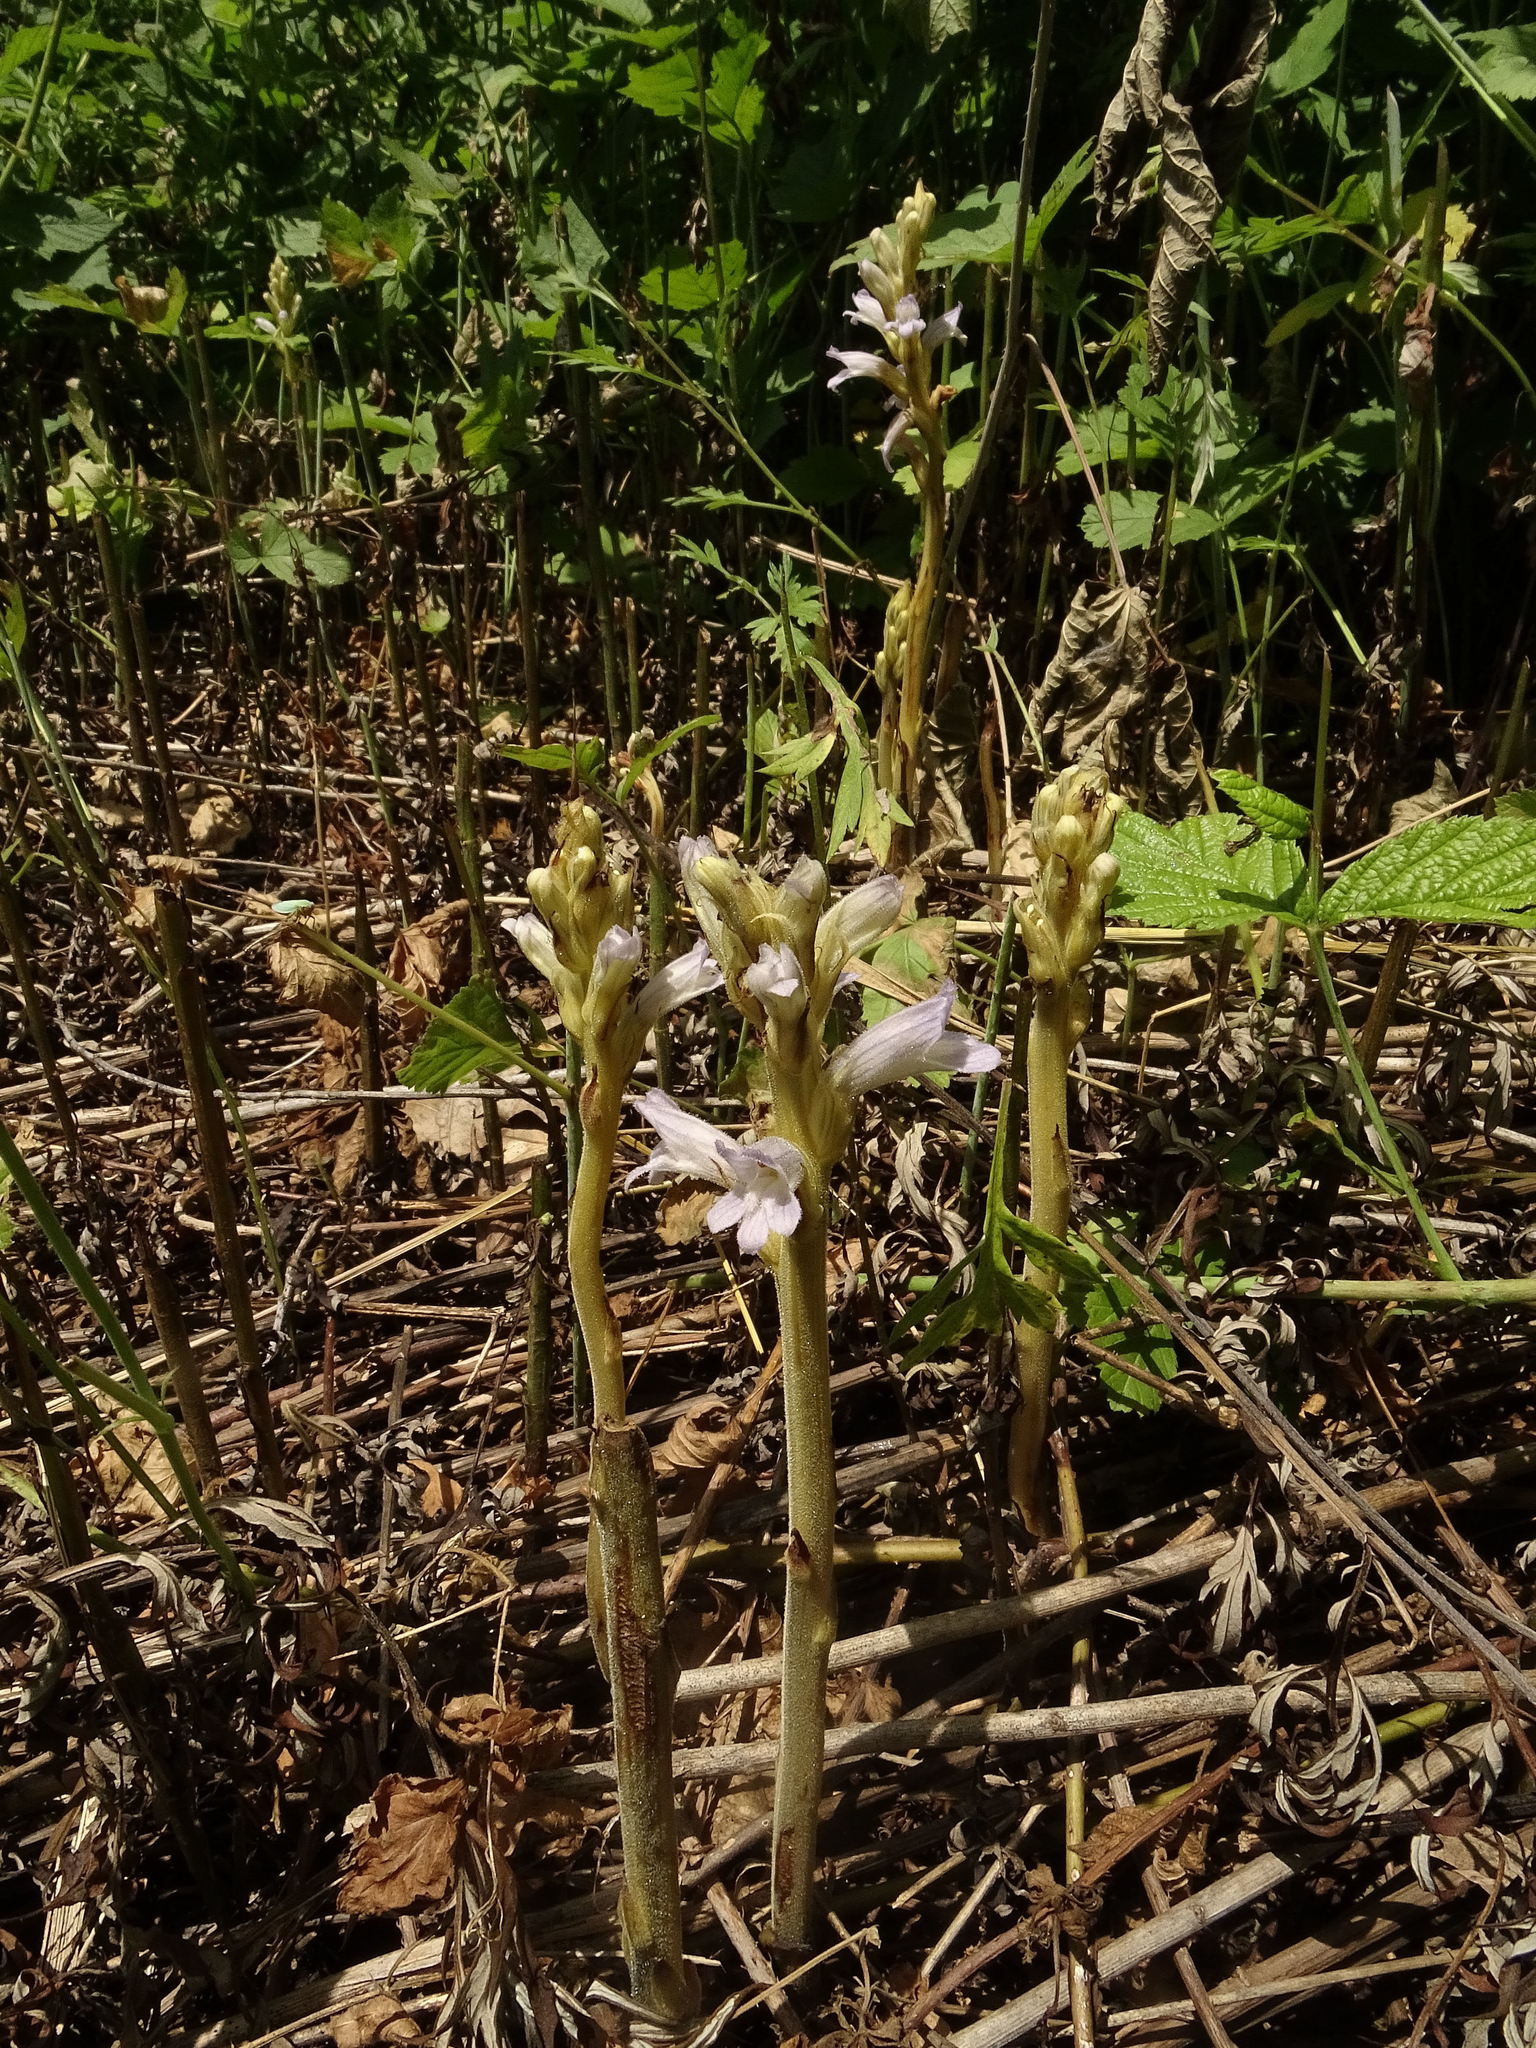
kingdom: Plantae
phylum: Tracheophyta
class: Magnoliopsida
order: Lamiales
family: Orobanchaceae
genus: Phelipanche
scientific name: Phelipanche purpurea
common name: Purple broomrape
